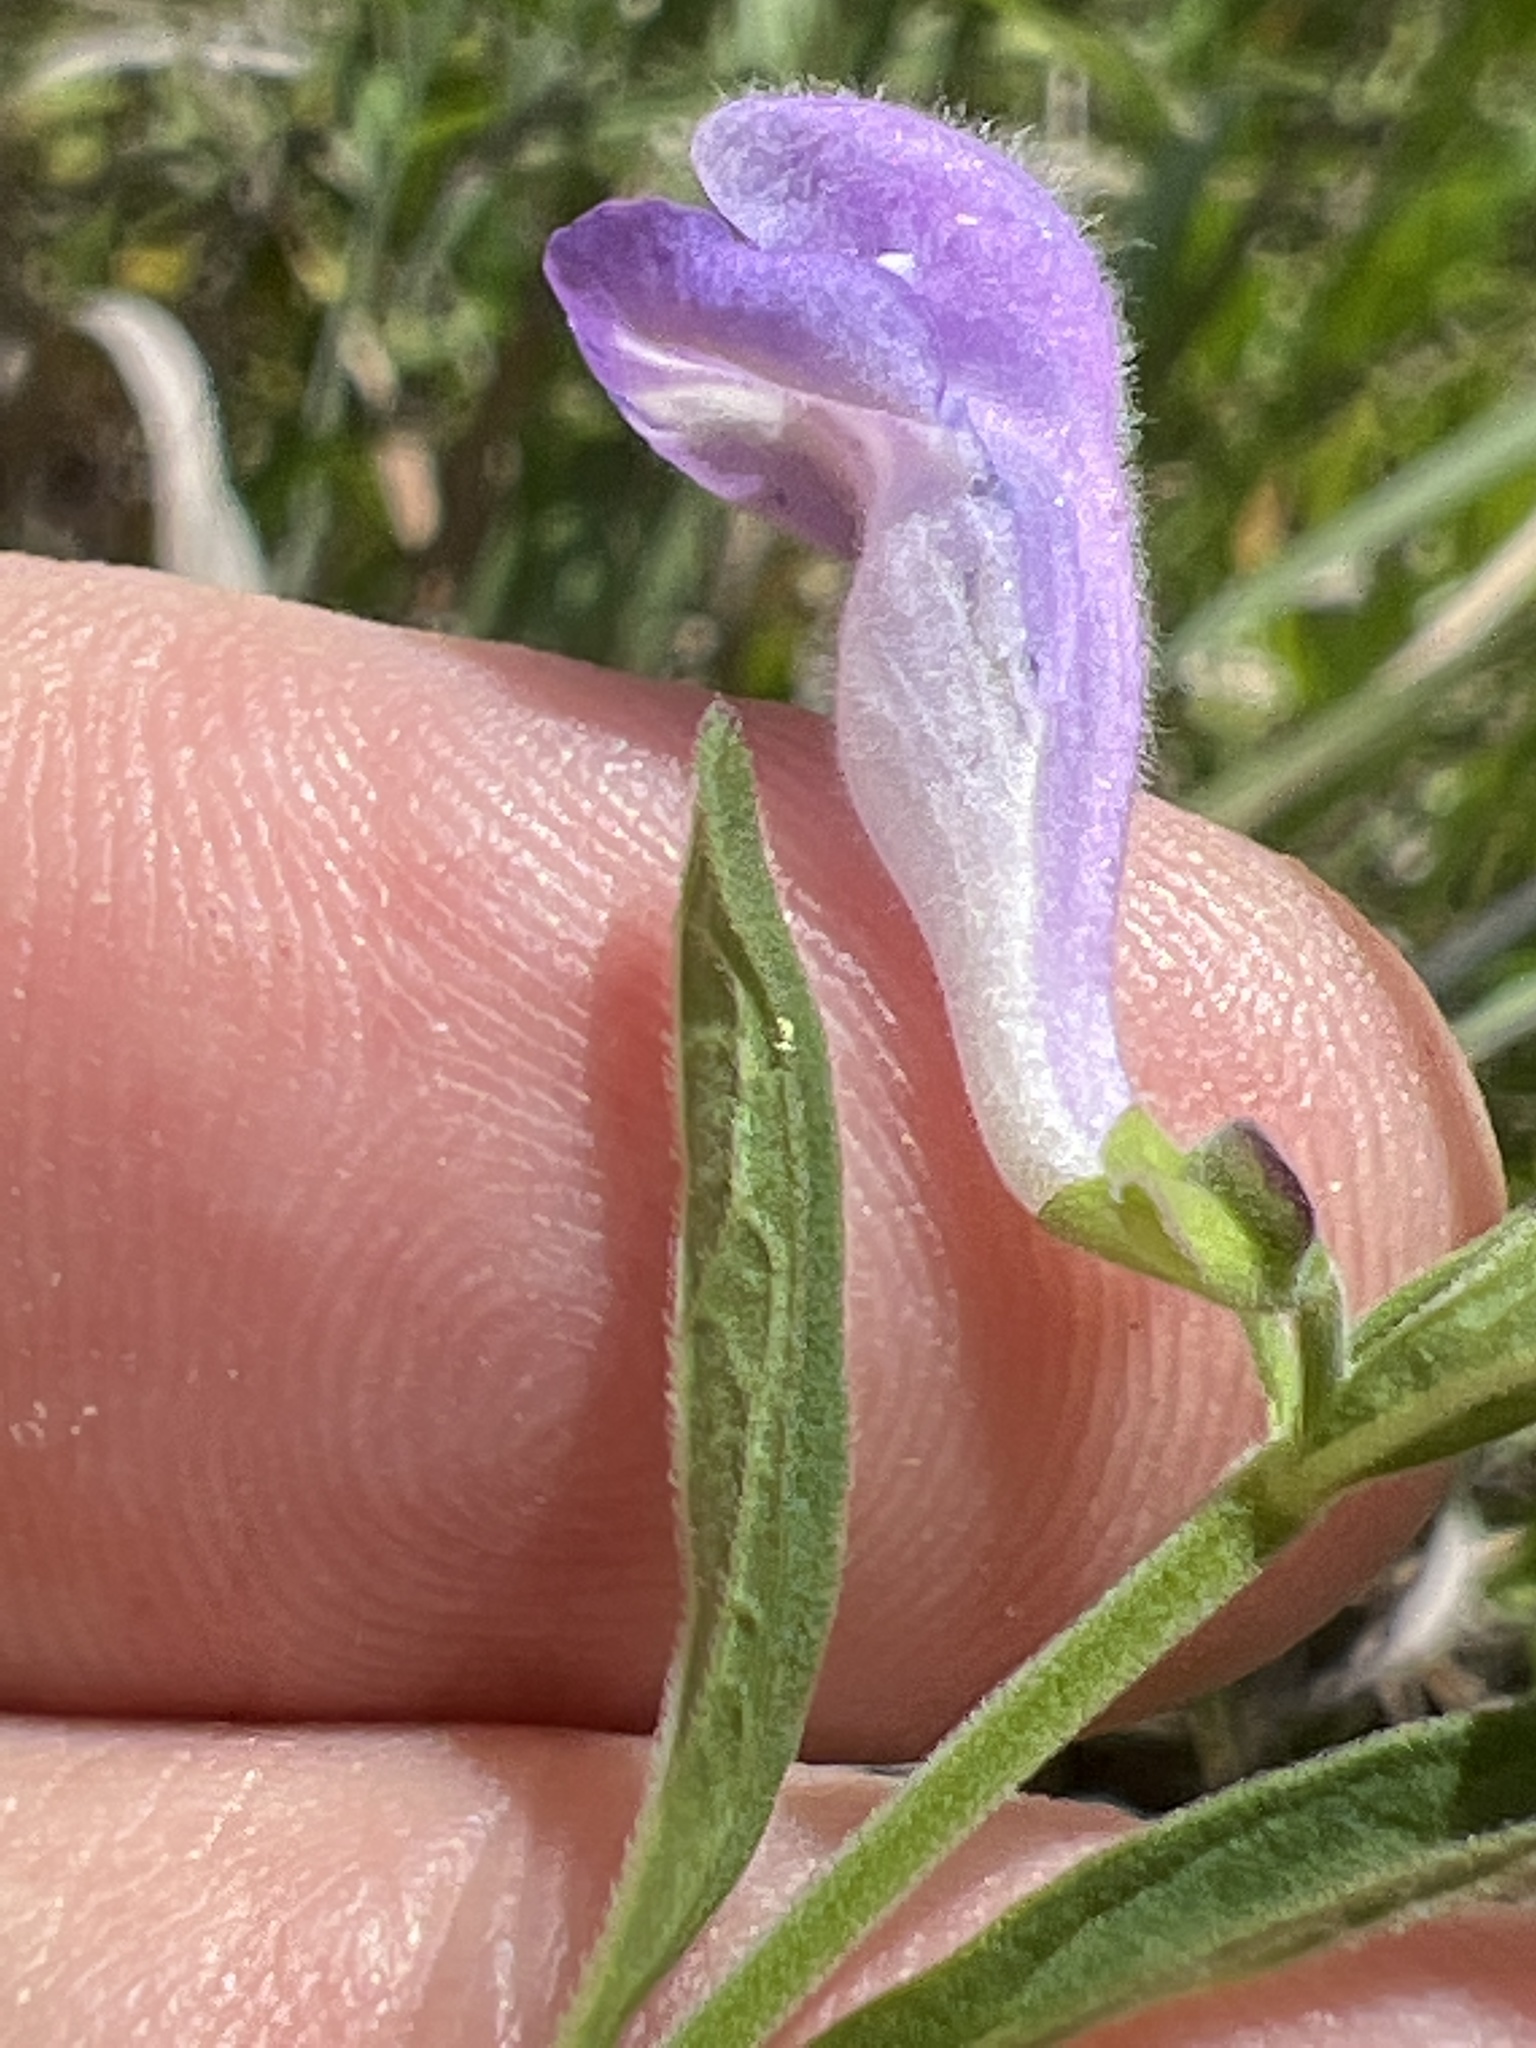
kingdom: Plantae
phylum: Tracheophyta
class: Magnoliopsida
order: Lamiales
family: Lamiaceae
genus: Scutellaria
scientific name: Scutellaria integrifolia
